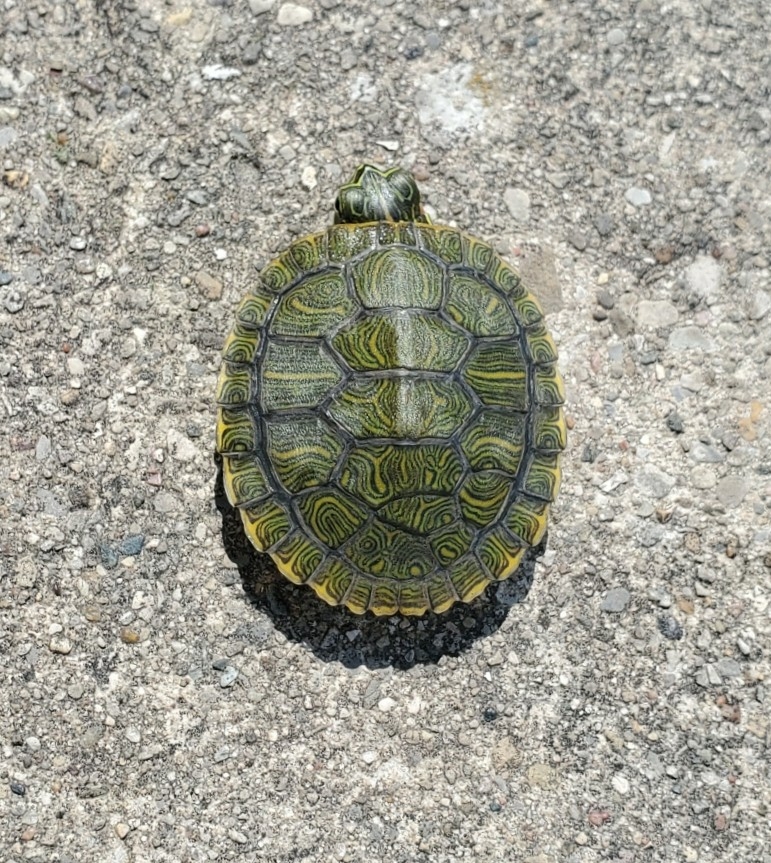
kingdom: Animalia
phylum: Chordata
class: Testudines
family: Emydidae
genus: Trachemys
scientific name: Trachemys scripta
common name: Slider
